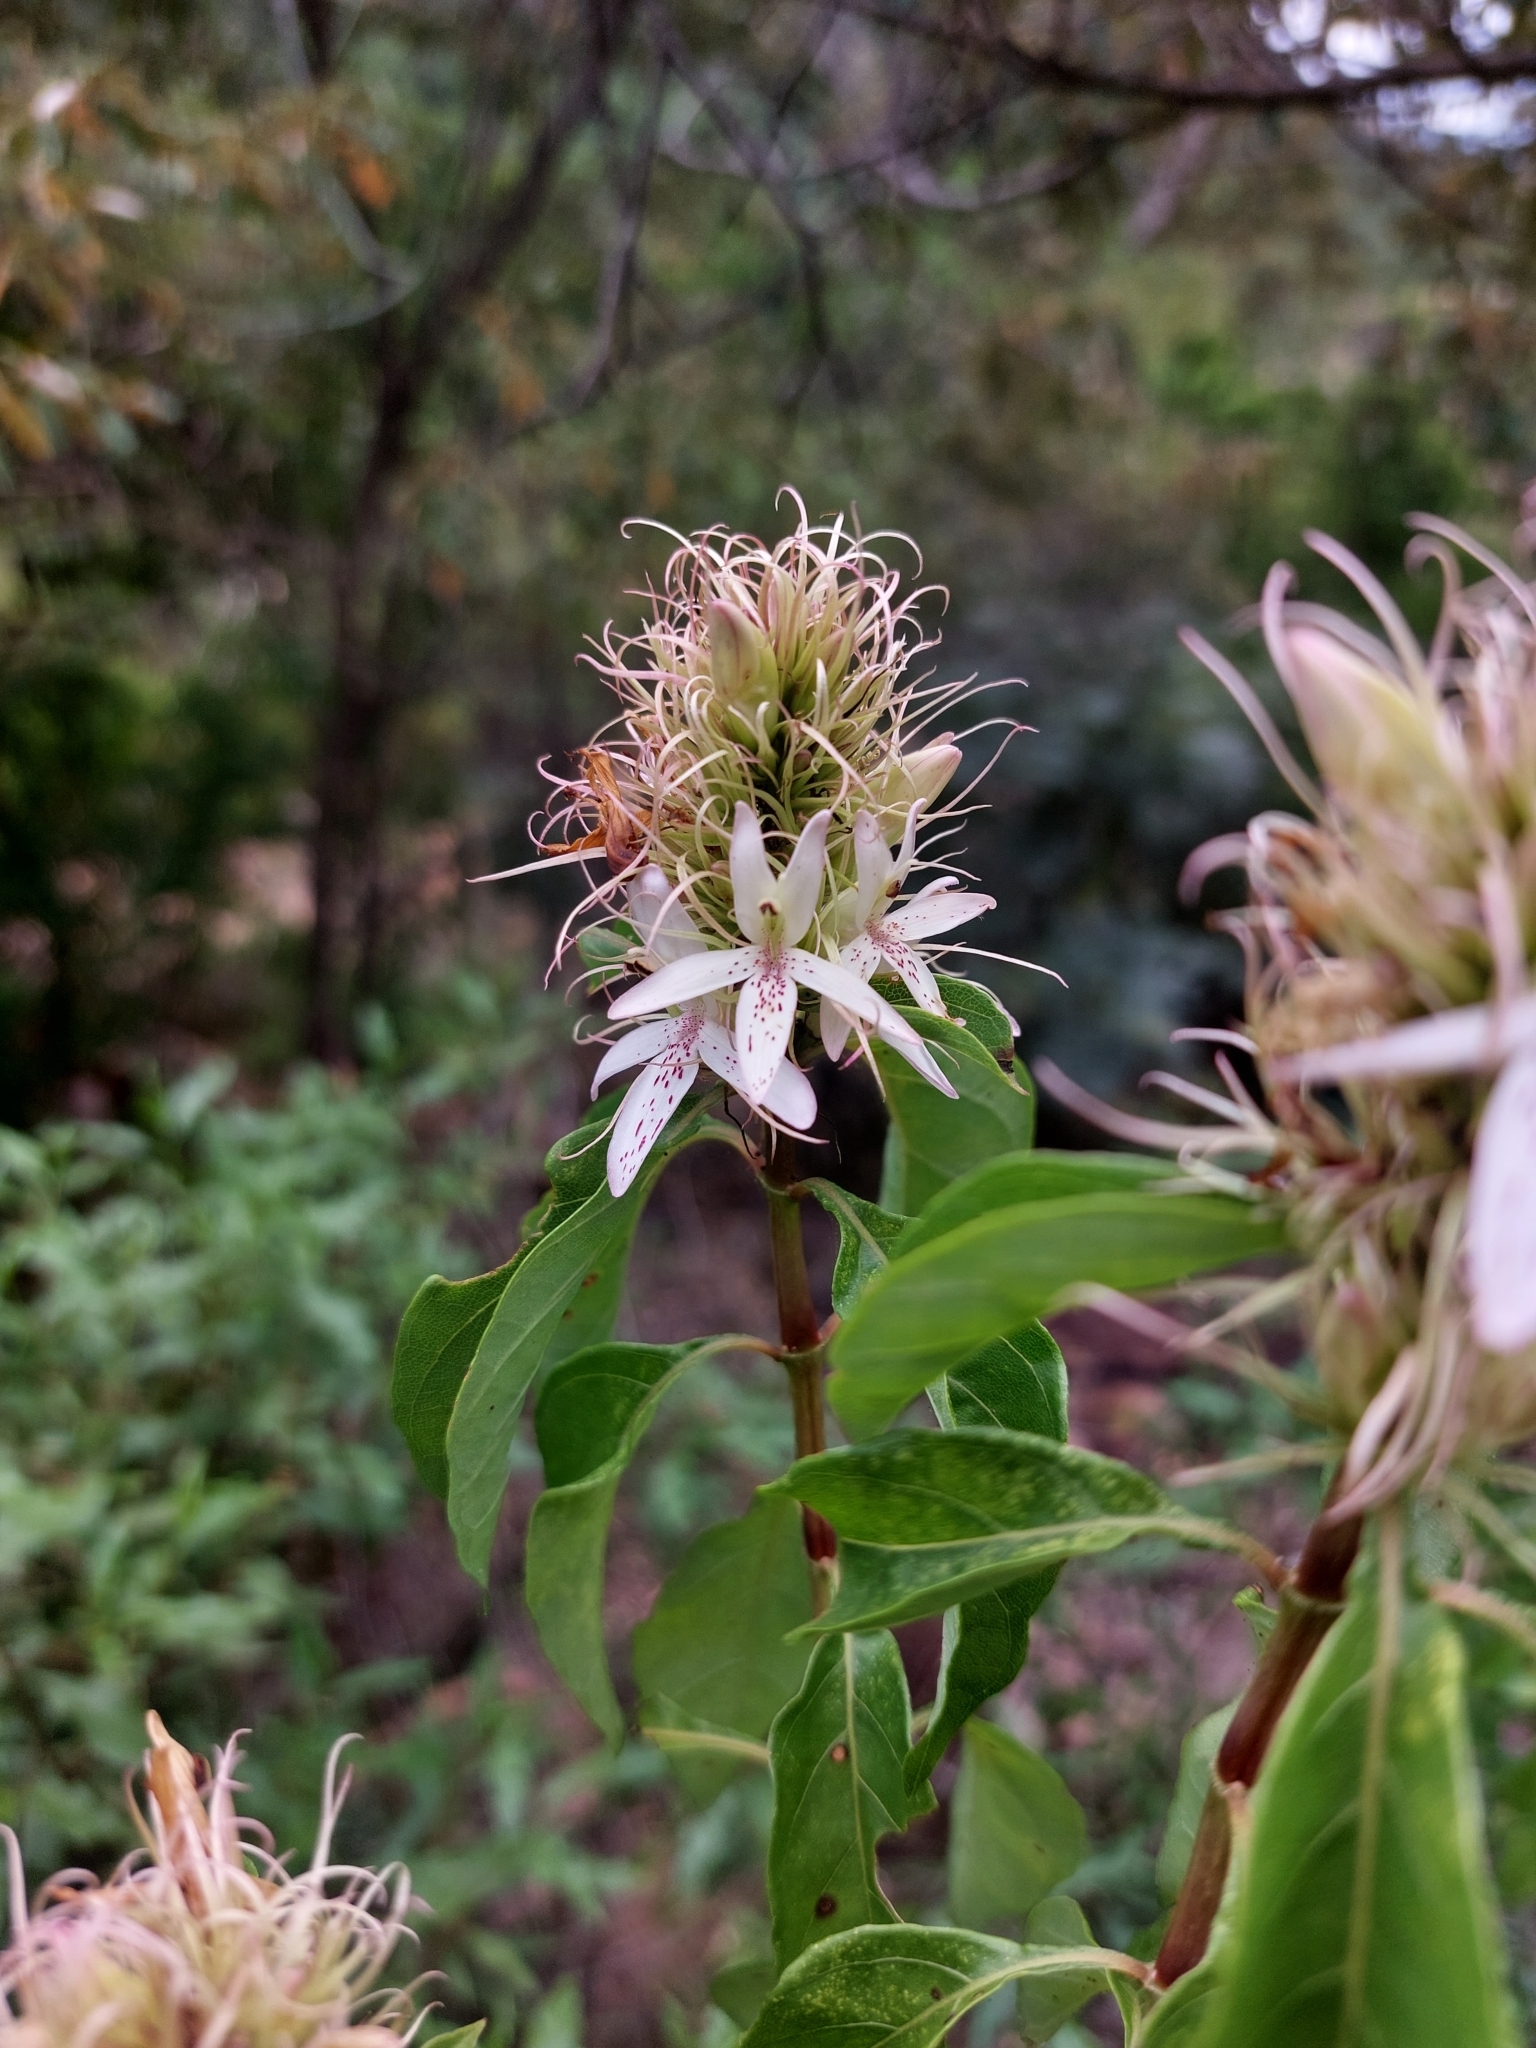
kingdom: Plantae
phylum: Tracheophyta
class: Magnoliopsida
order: Lamiales
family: Acanthaceae
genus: Ruttya
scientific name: Ruttya ovata
